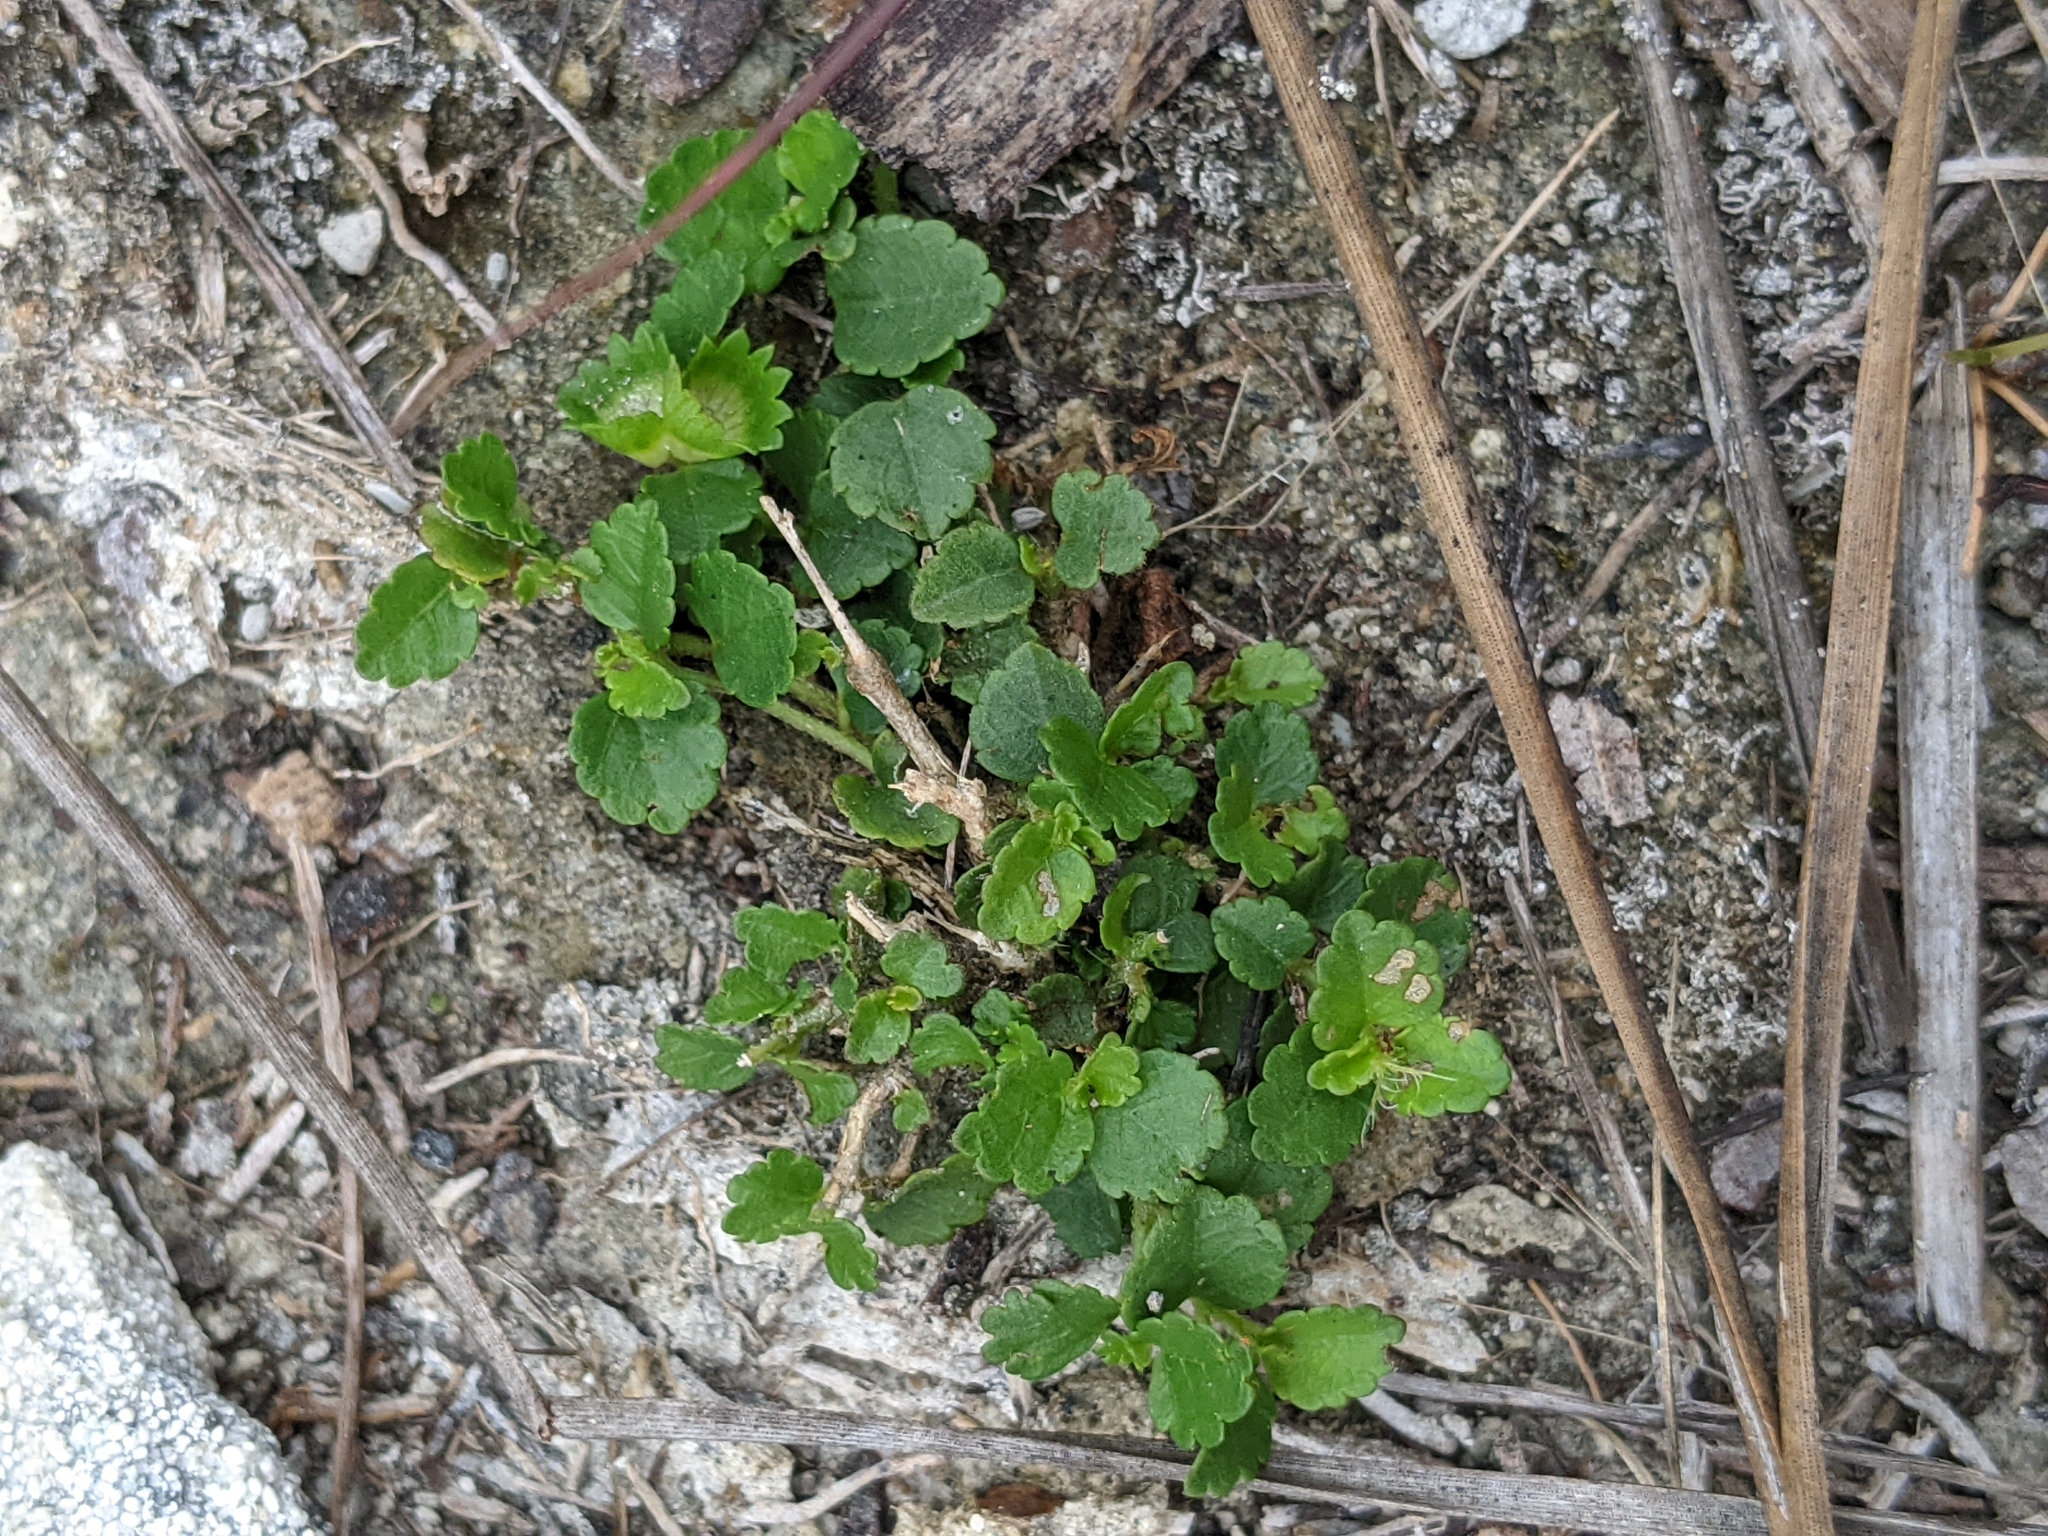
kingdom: Plantae
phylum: Tracheophyta
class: Magnoliopsida
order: Malpighiales
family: Euphorbiaceae
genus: Acalypha
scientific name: Acalypha chamaedrifolia
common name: Bastard copperleaf
